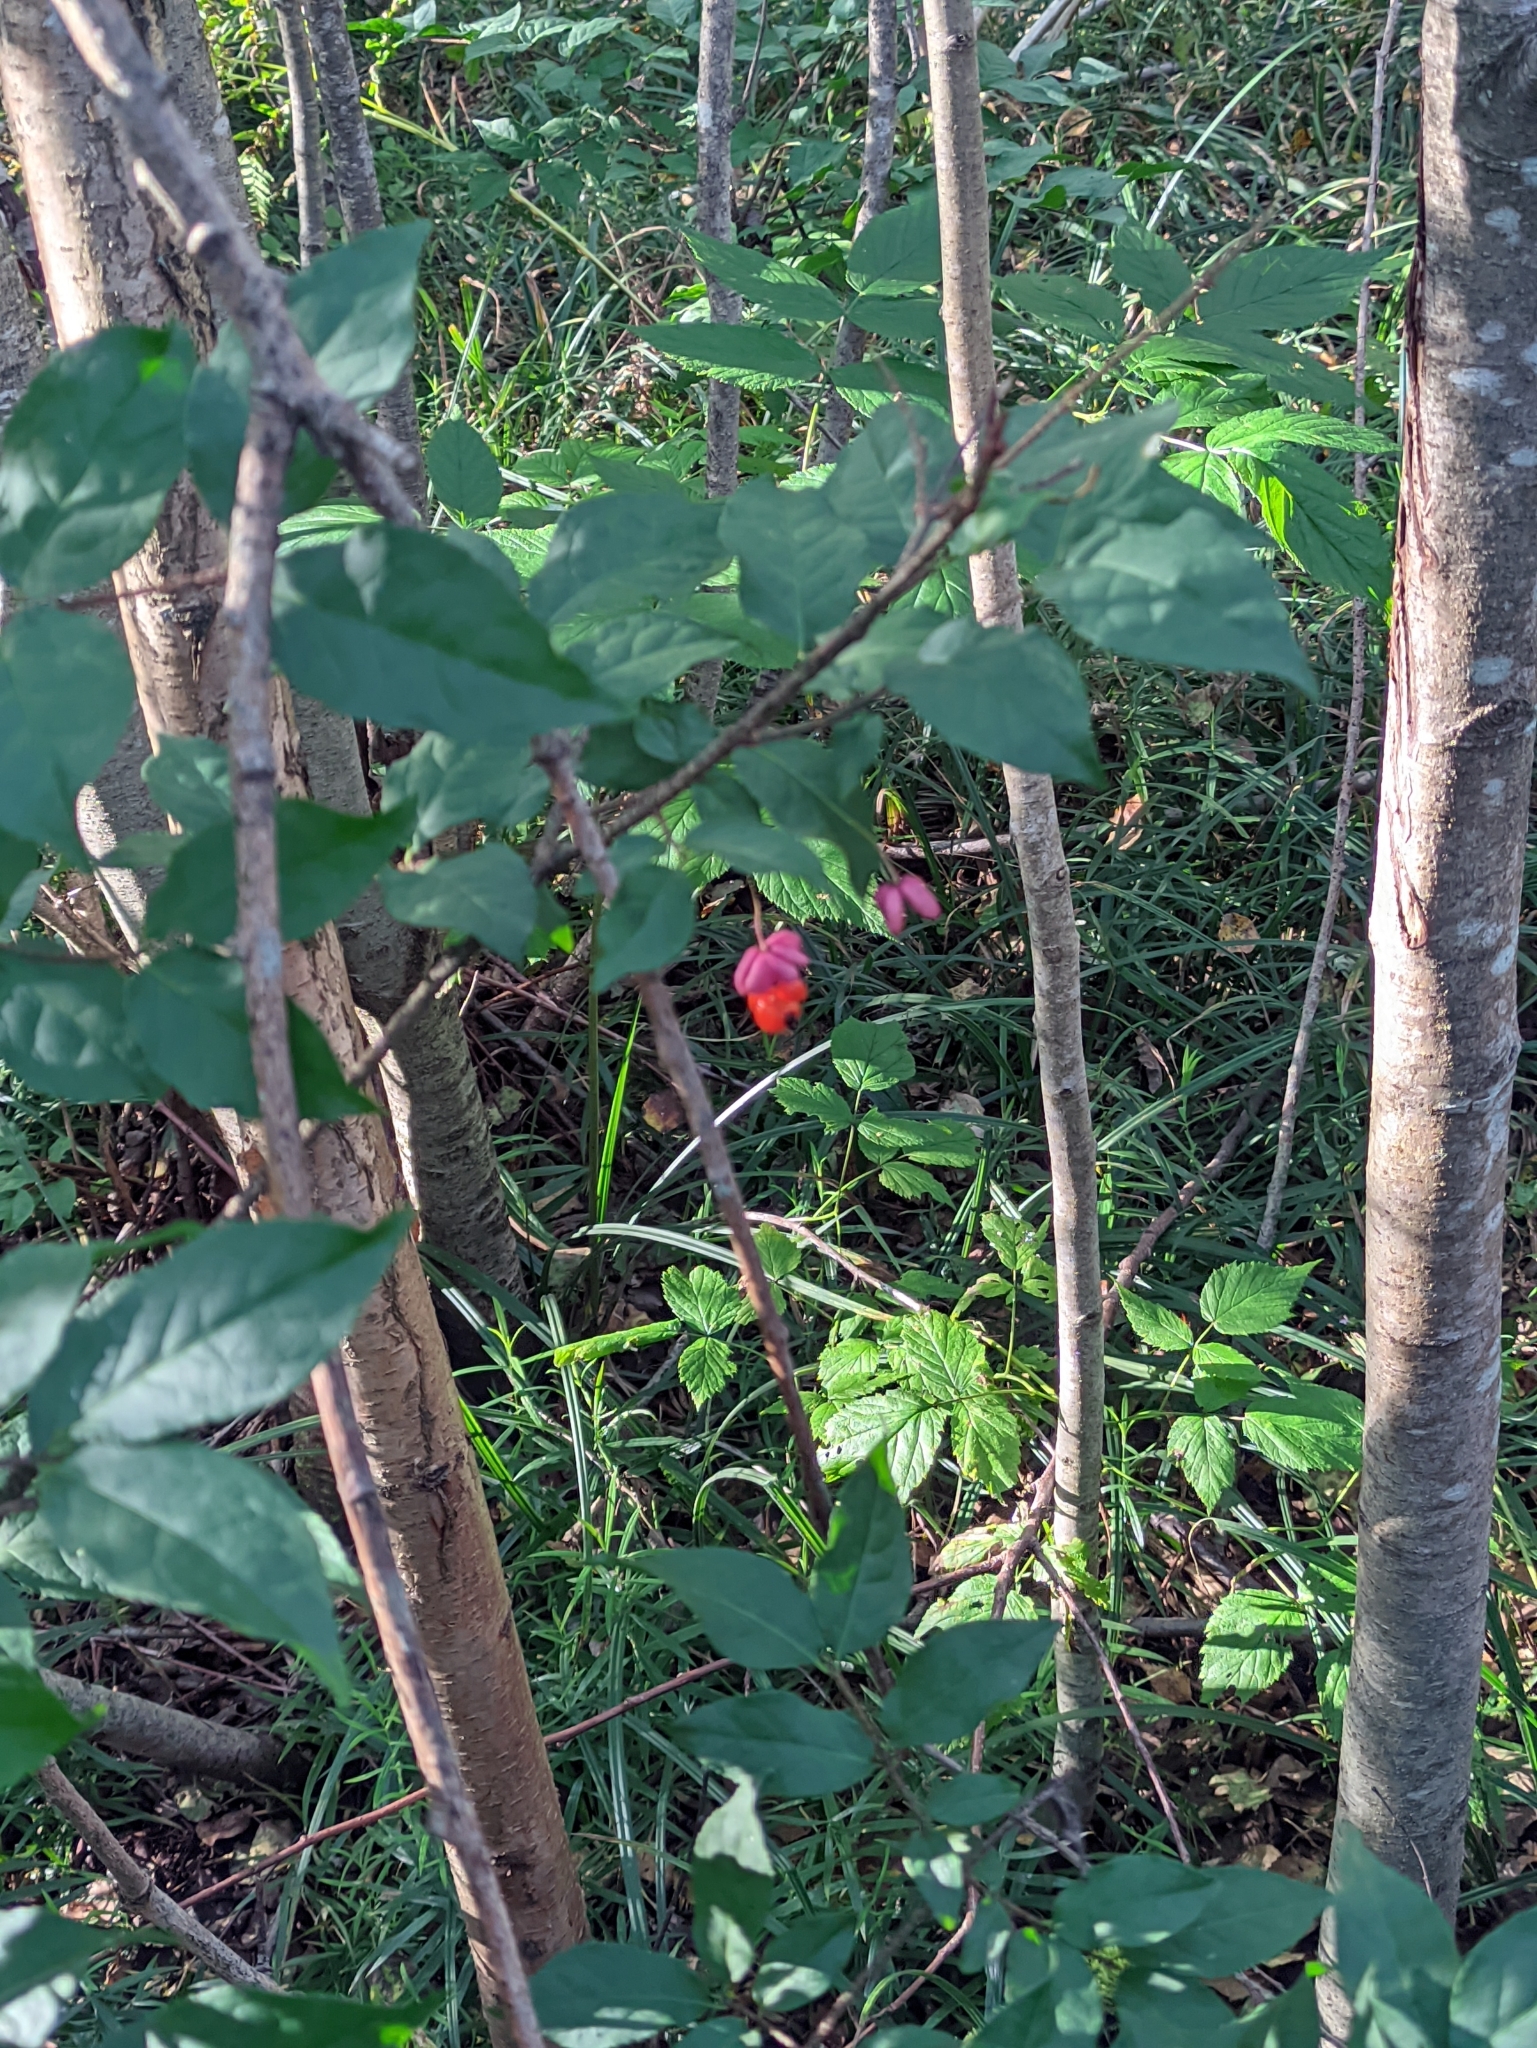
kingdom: Plantae
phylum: Tracheophyta
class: Magnoliopsida
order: Celastrales
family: Celastraceae
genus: Euonymus
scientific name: Euonymus verrucosus
